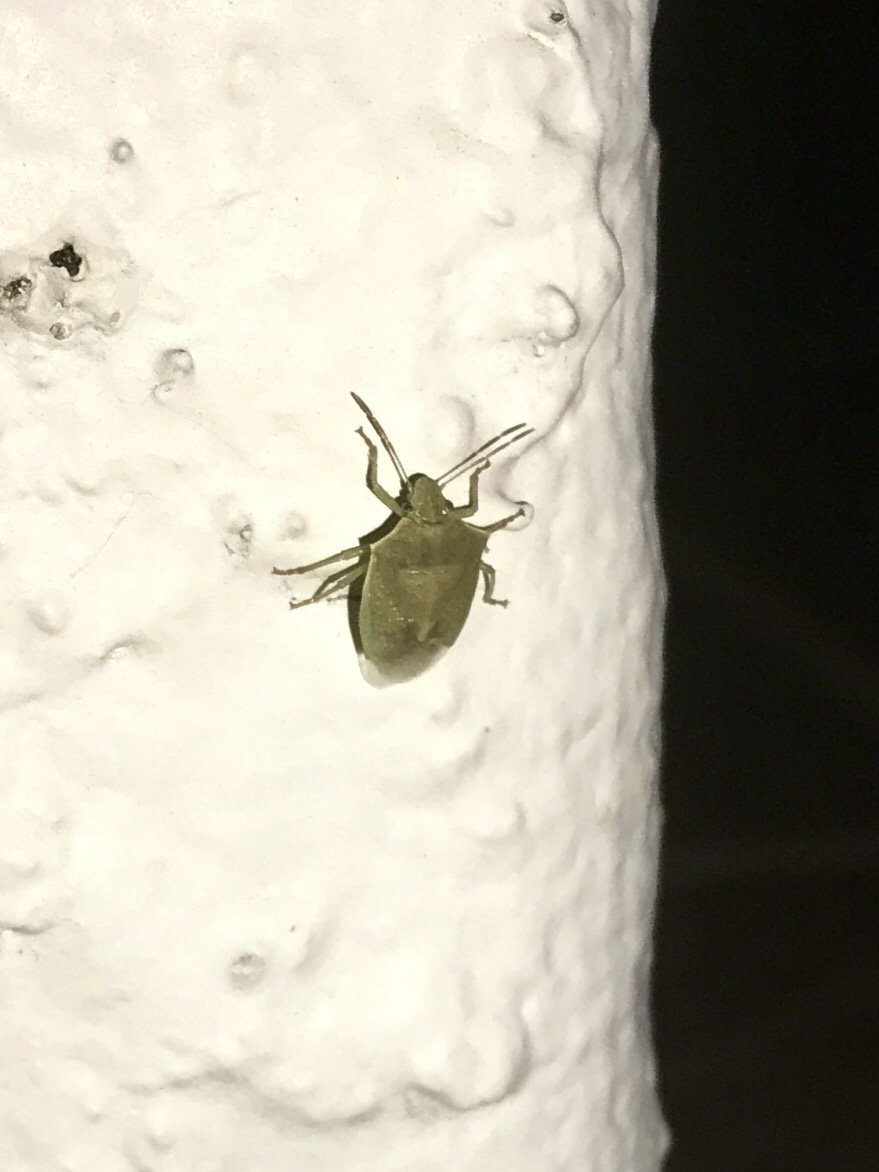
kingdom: Animalia
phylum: Arthropoda
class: Insecta
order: Hemiptera
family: Pentatomidae
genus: Thyanta
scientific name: Thyanta accerra
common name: Stink bug
